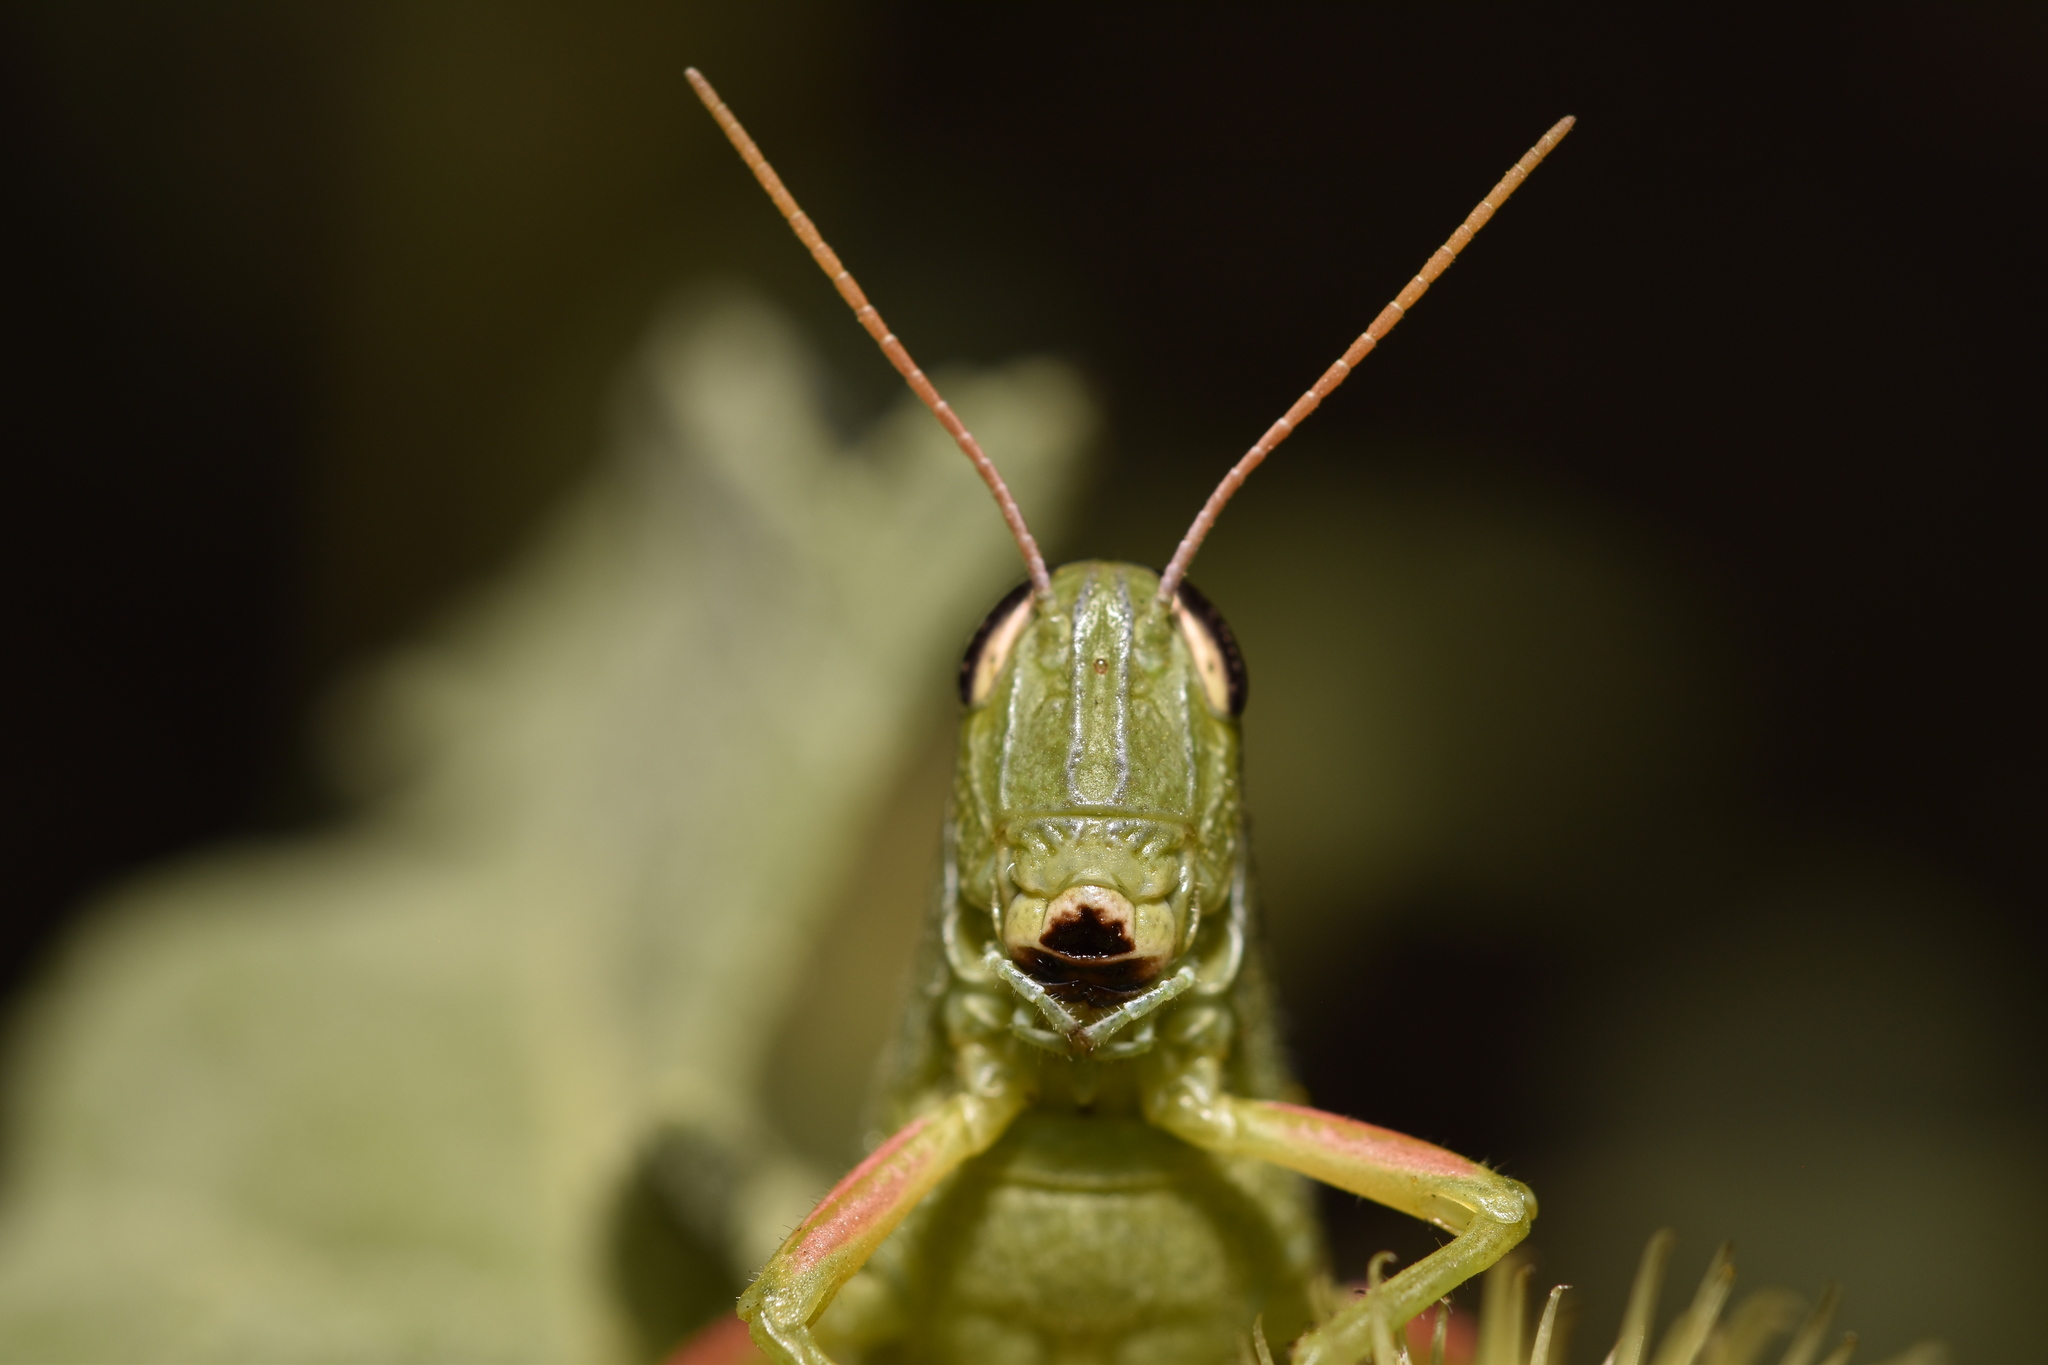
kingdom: Animalia
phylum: Arthropoda
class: Insecta
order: Orthoptera
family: Acrididae
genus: Hesperotettix
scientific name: Hesperotettix speciosus
